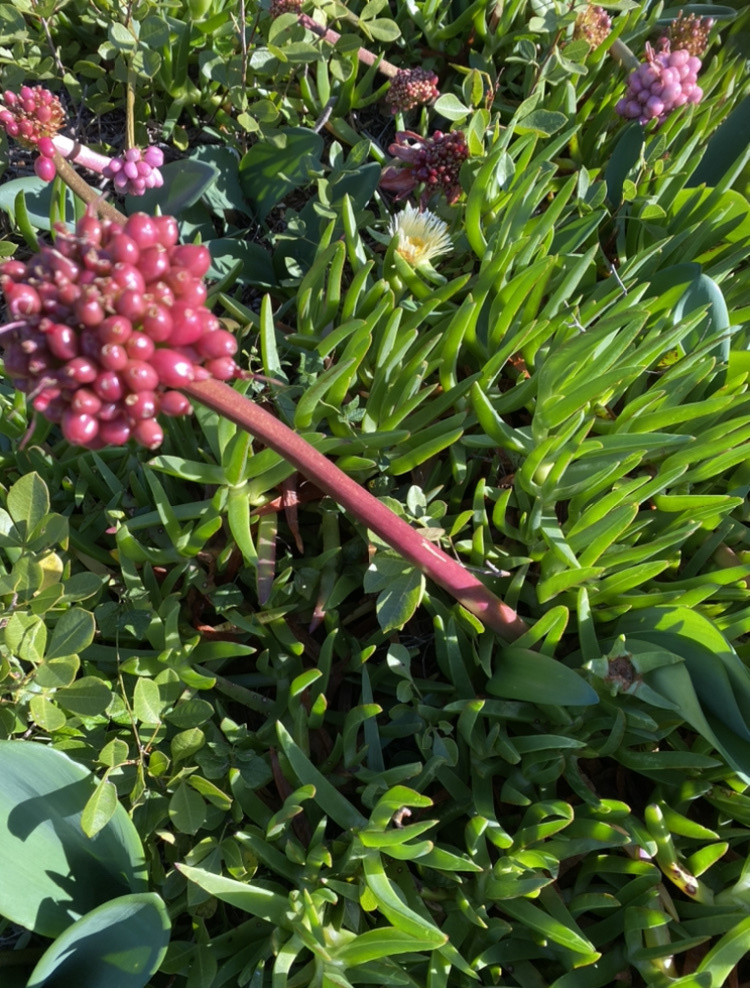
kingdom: Plantae
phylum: Tracheophyta
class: Liliopsida
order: Asparagales
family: Amaryllidaceae
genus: Haemanthus
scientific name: Haemanthus coccineus
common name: Cape-tulip
